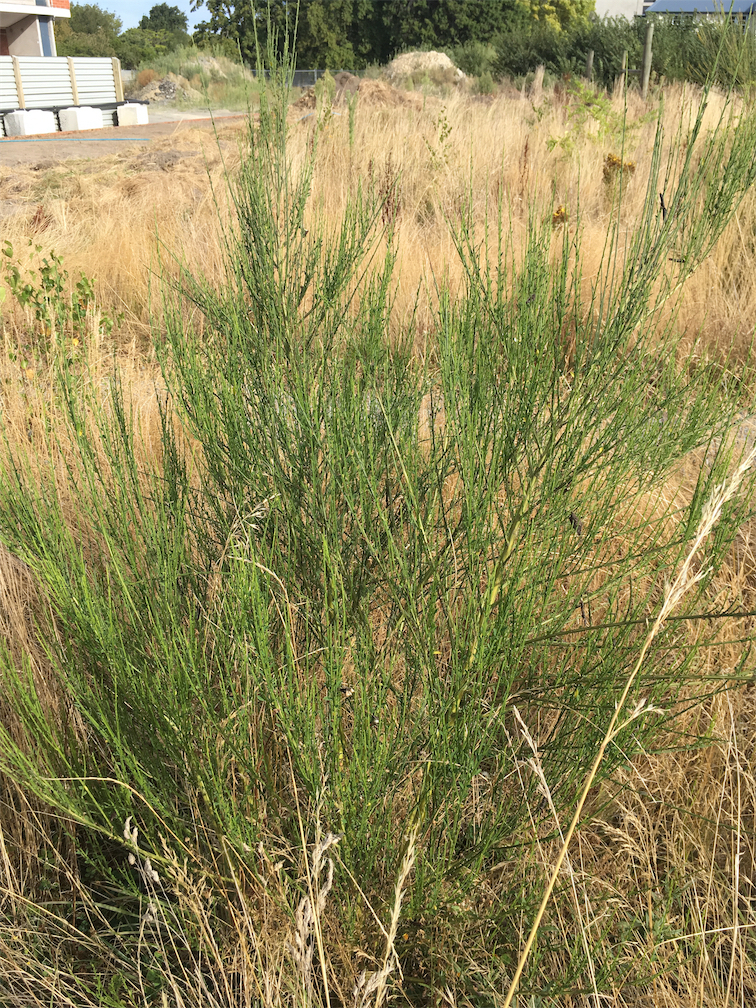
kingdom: Plantae
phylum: Tracheophyta
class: Magnoliopsida
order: Fabales
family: Fabaceae
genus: Cytisus
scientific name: Cytisus scoparius
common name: Scotch broom
